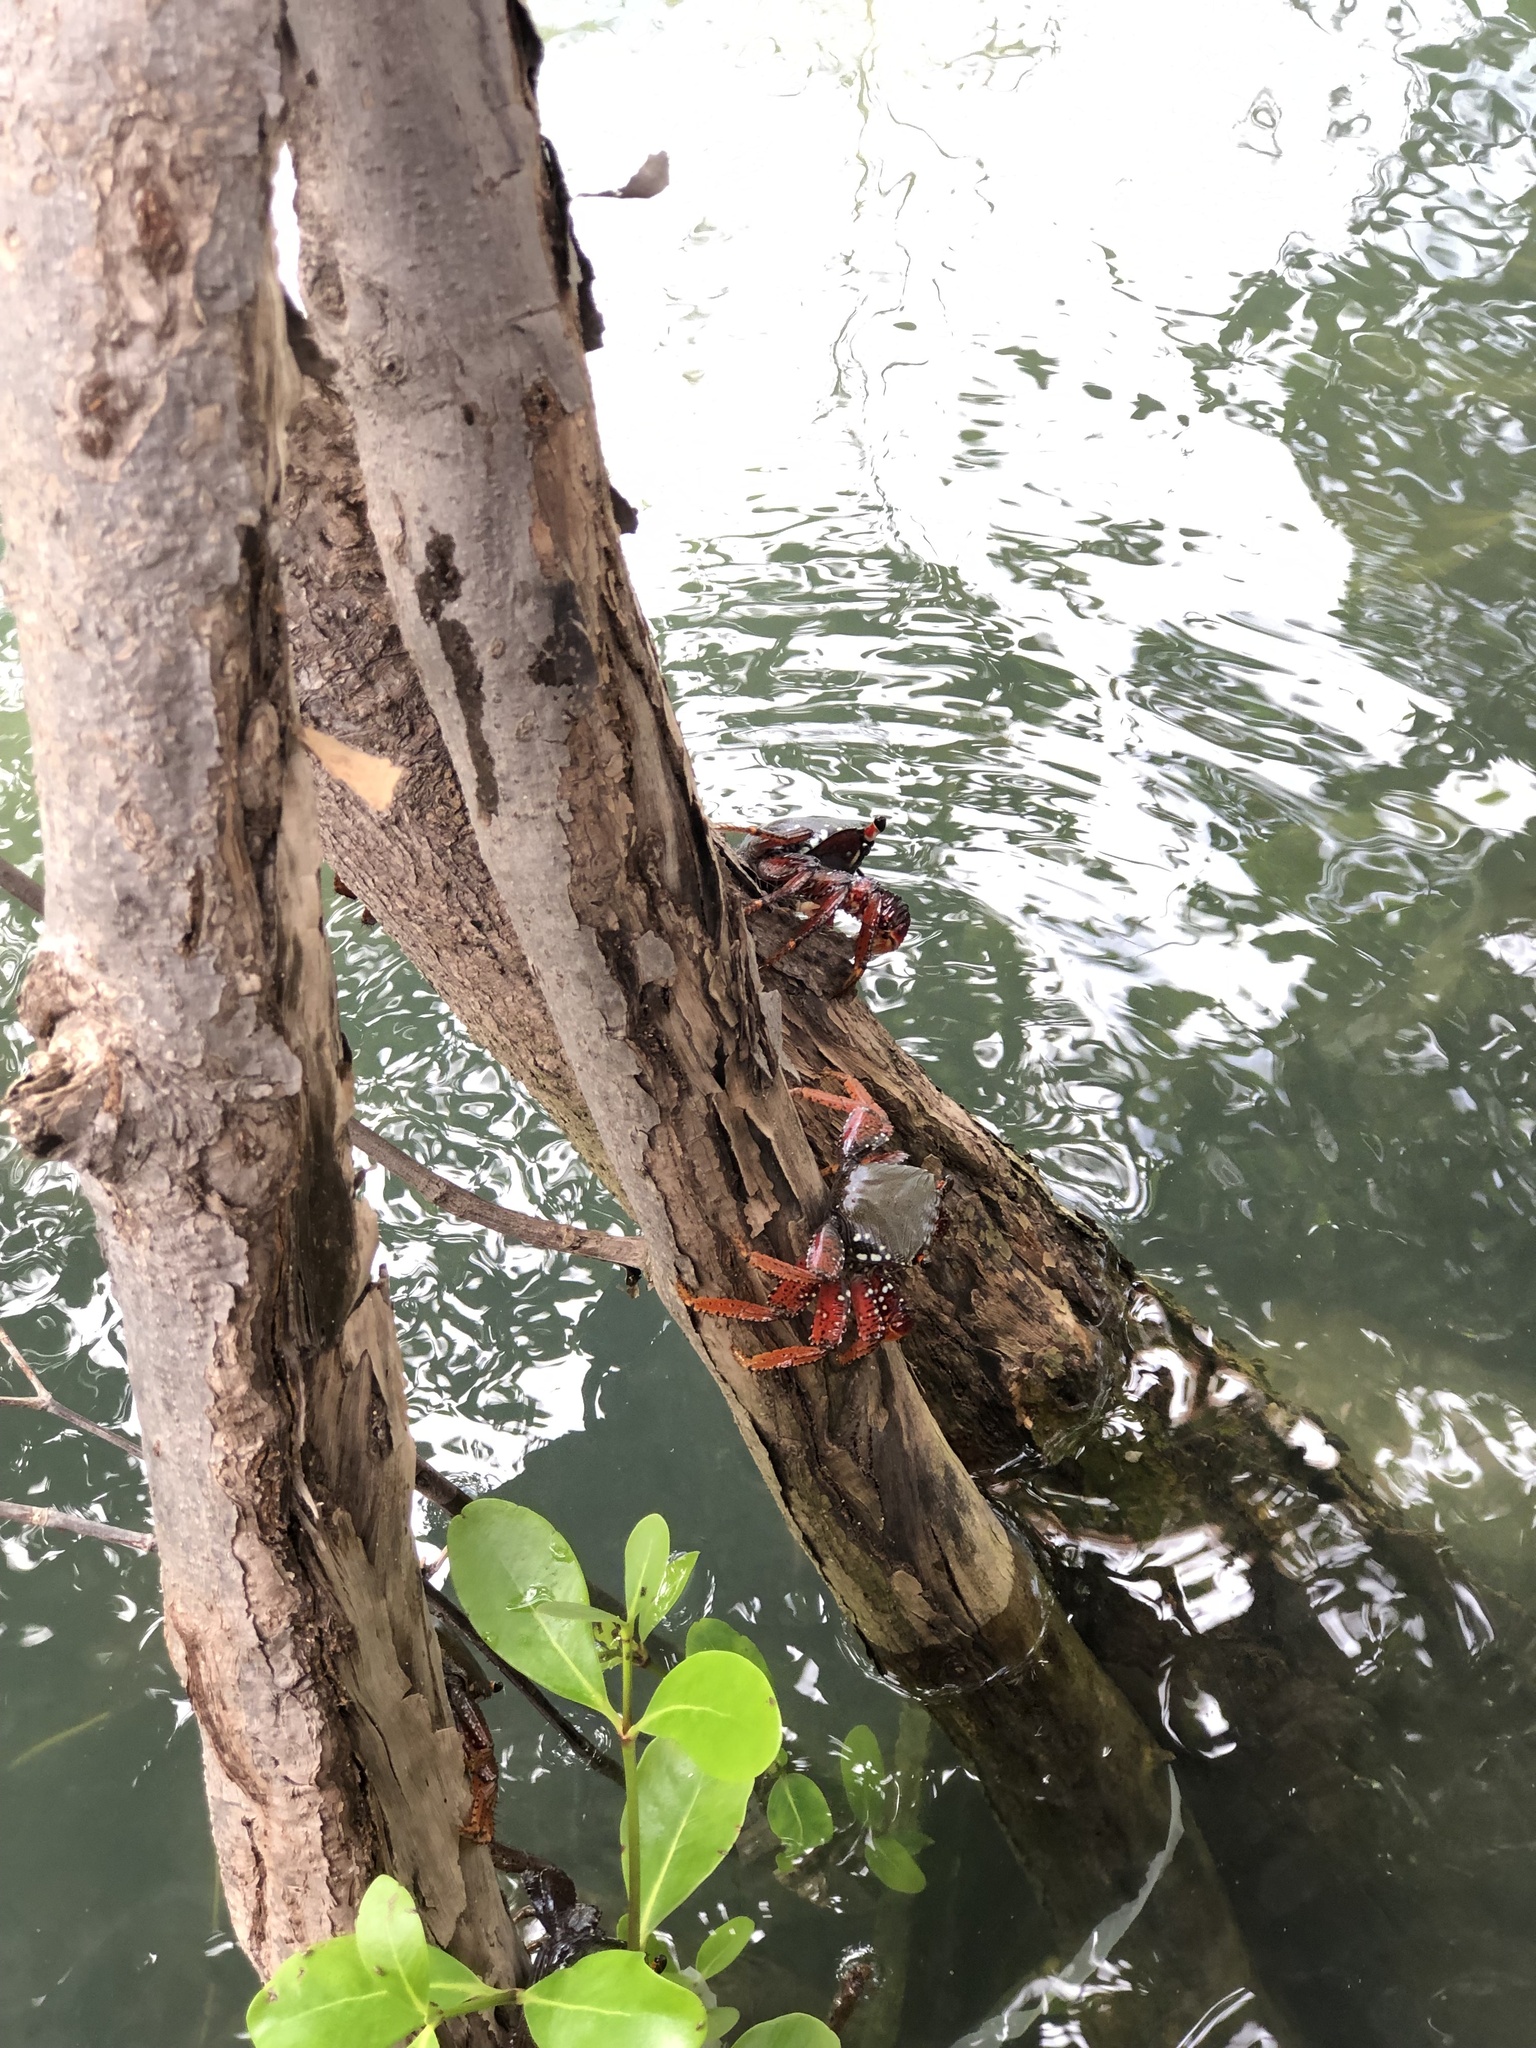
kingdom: Animalia
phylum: Arthropoda
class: Malacostraca
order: Decapoda
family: Grapsidae
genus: Goniopsis
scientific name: Goniopsis cruentata
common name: Mangrove crab
